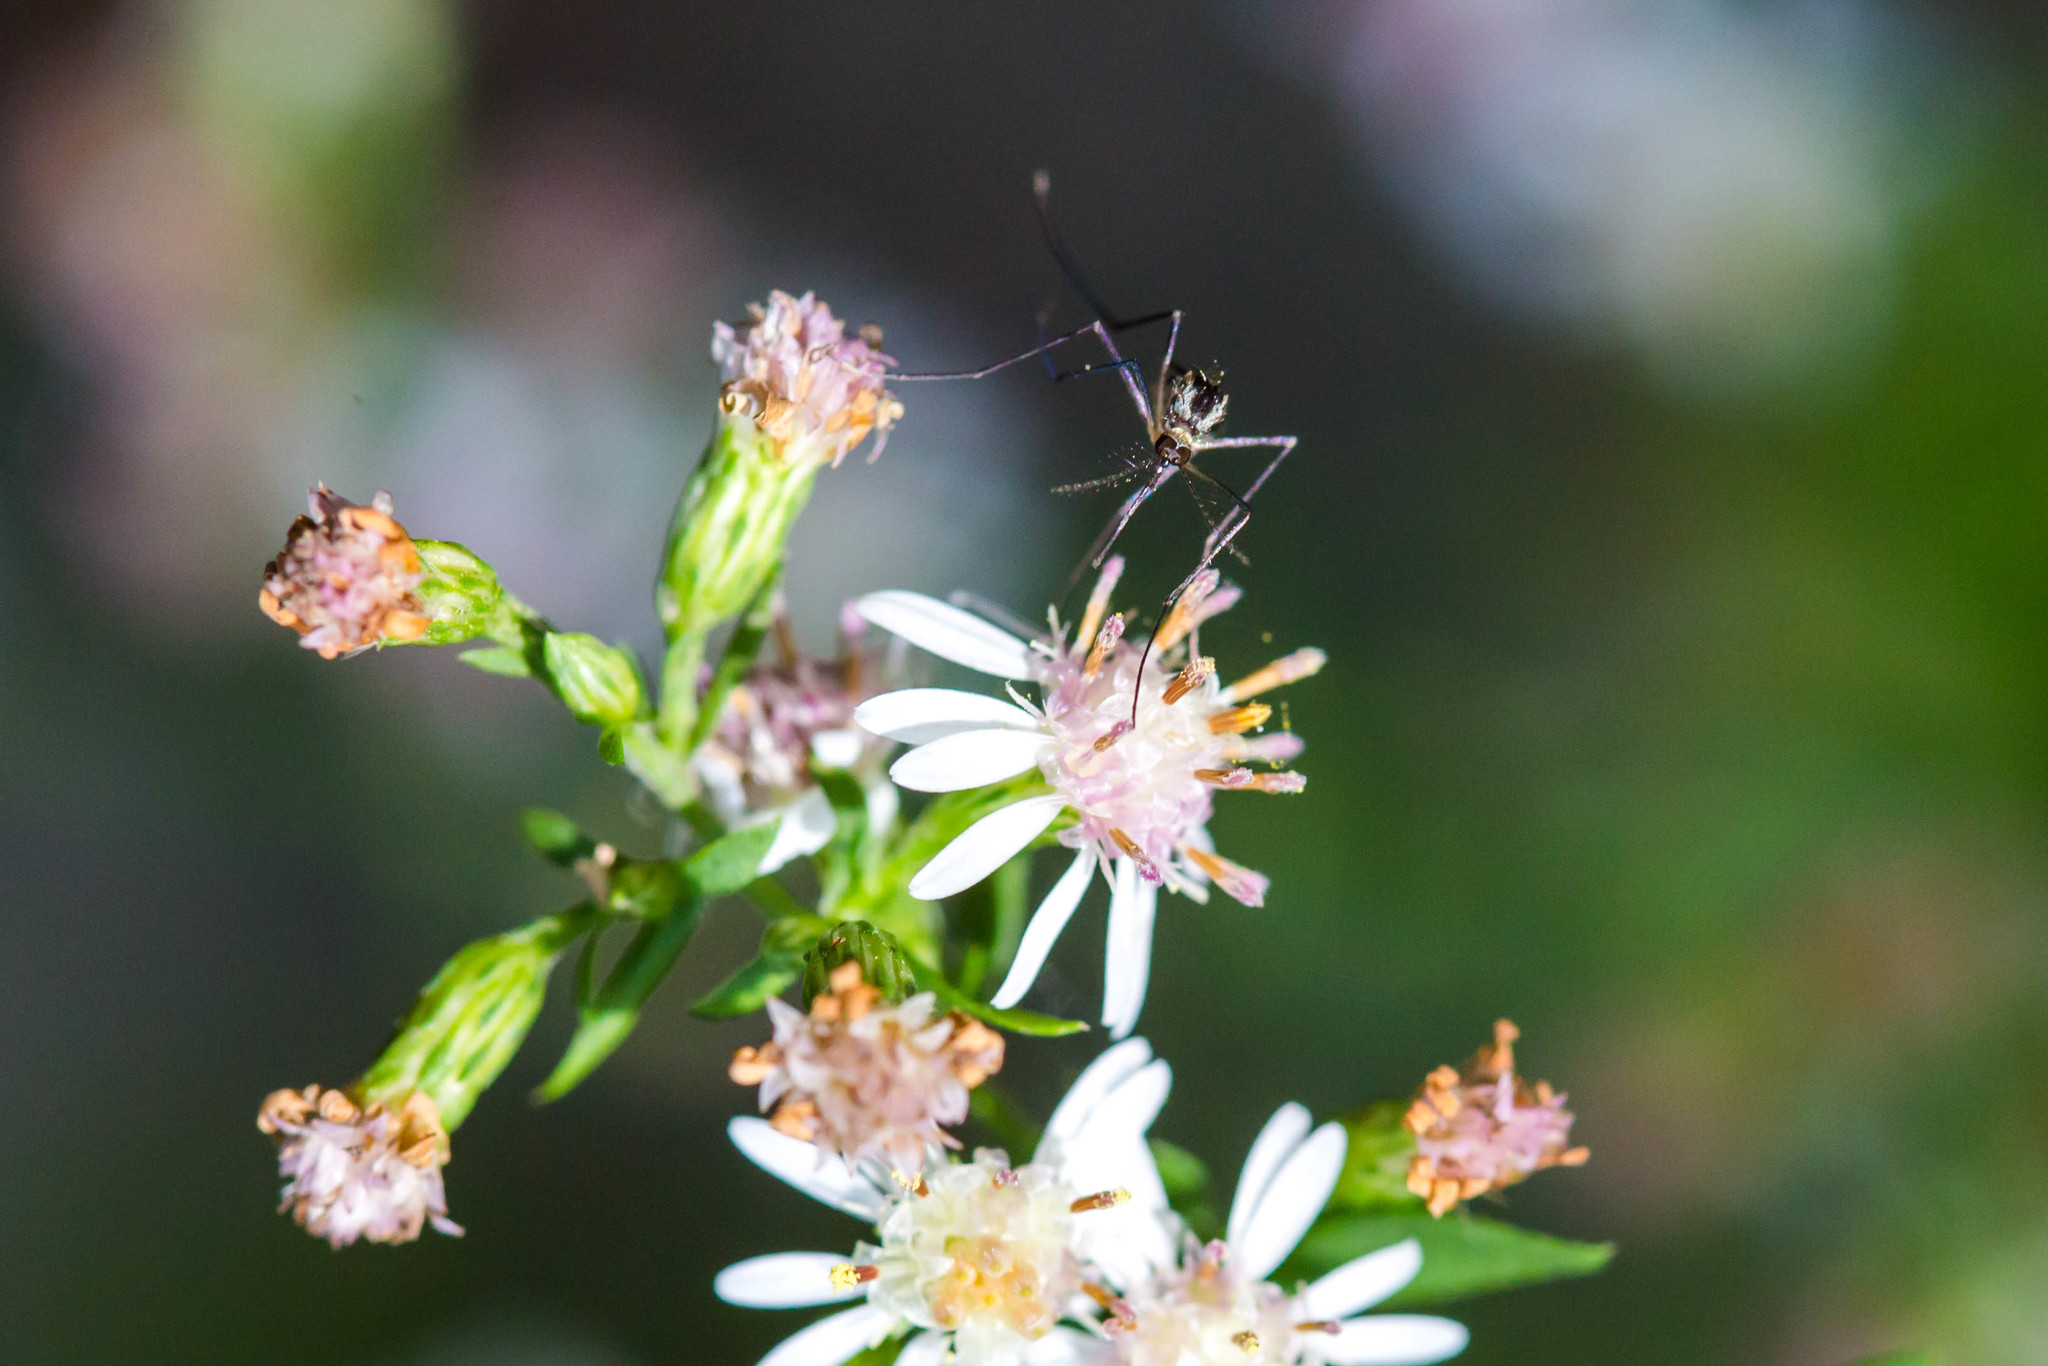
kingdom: Animalia
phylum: Arthropoda
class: Insecta
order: Diptera
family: Culicidae
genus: Aedes
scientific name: Aedes triseriatus
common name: Eastern treehole mosquito
